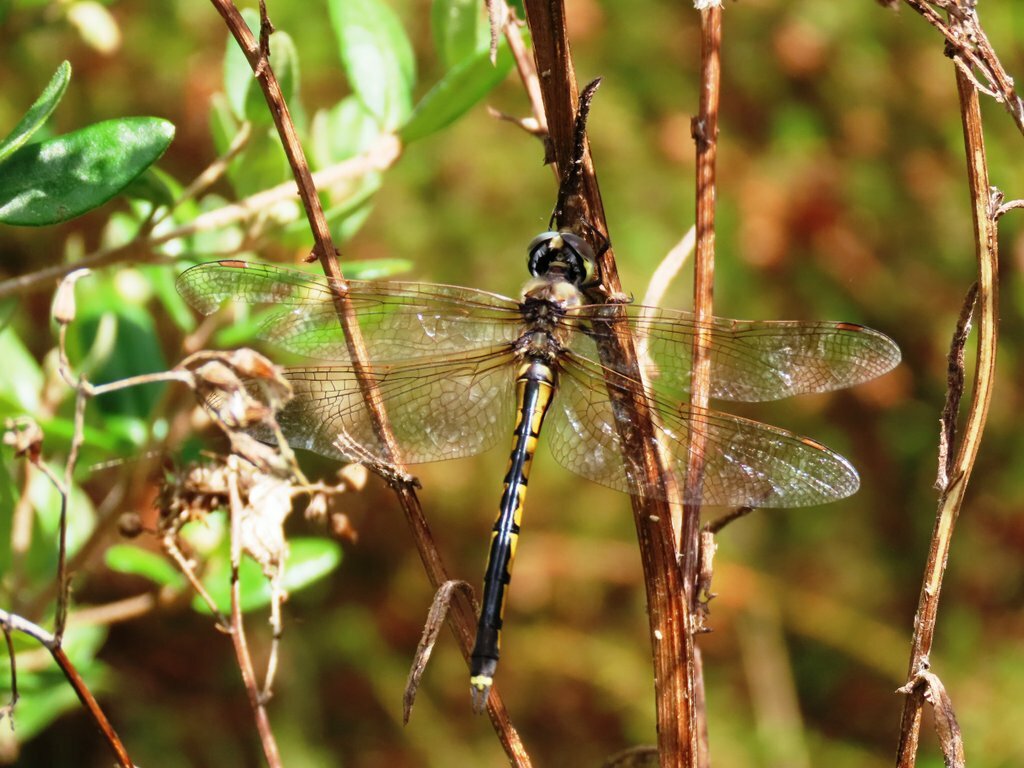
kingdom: Animalia
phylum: Arthropoda
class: Insecta
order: Odonata
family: Corduliidae
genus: Hemicordulia
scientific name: Hemicordulia tau
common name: Tau emerald
